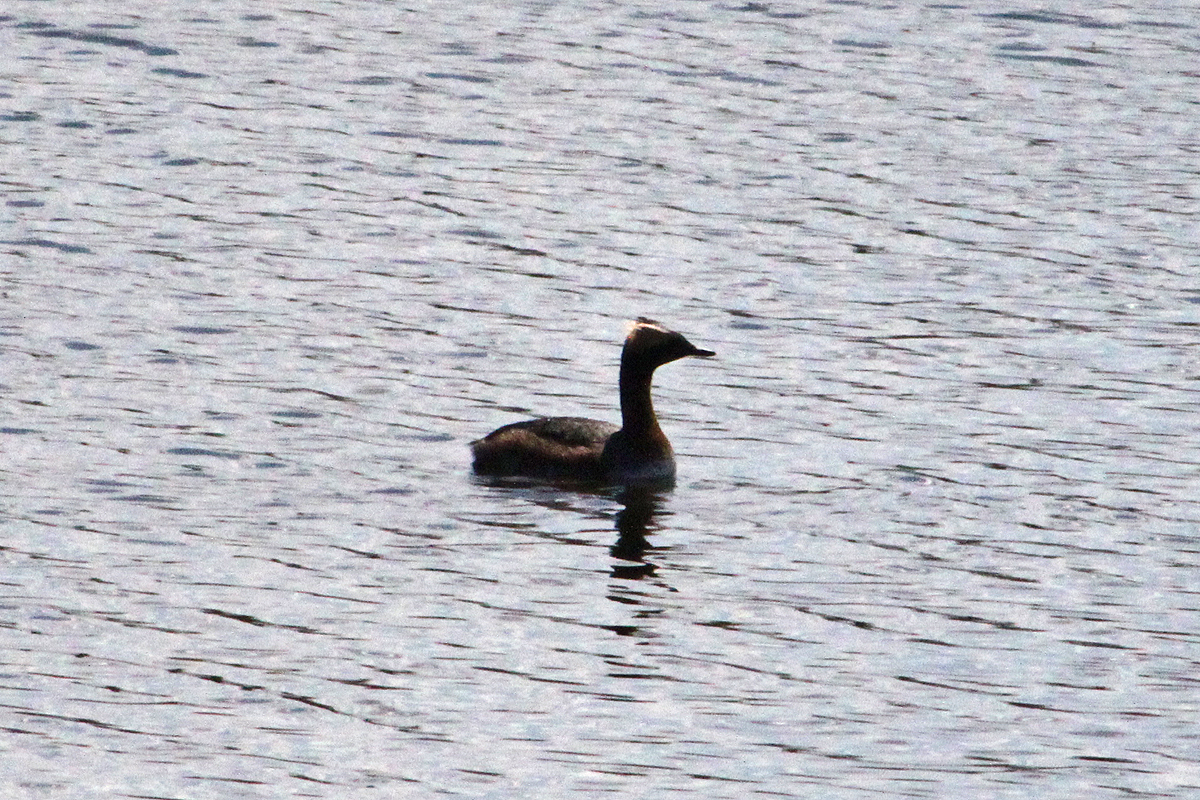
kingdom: Animalia
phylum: Chordata
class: Aves
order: Podicipediformes
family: Podicipedidae
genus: Podiceps
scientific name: Podiceps auritus
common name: Horned grebe
